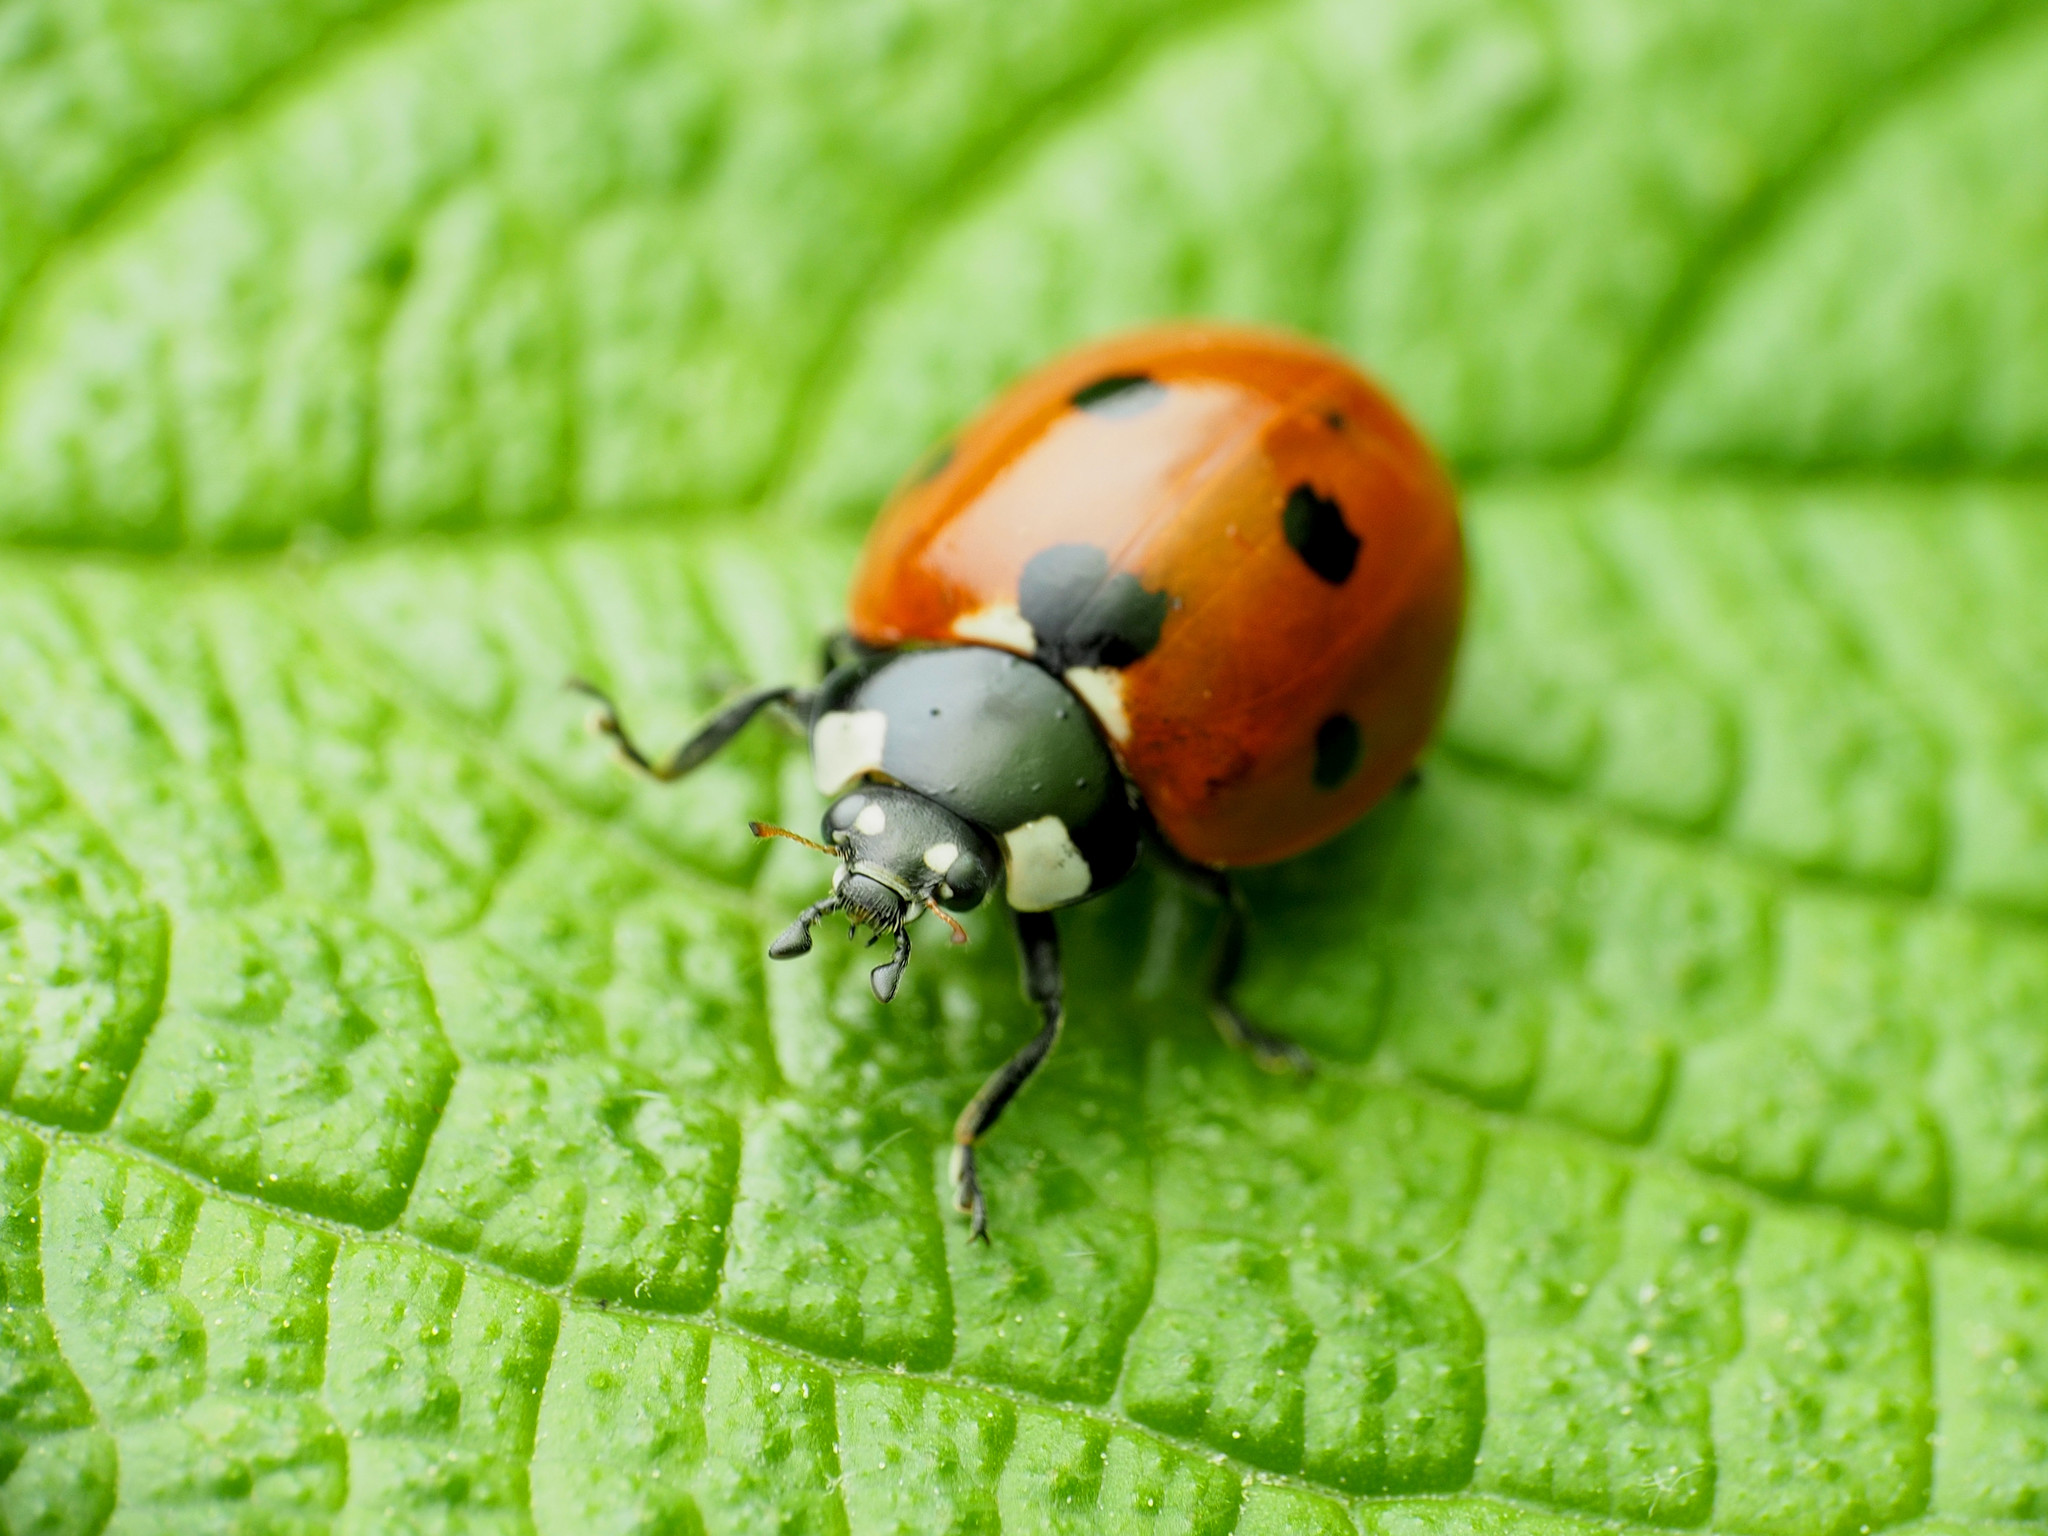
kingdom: Animalia
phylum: Arthropoda
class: Insecta
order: Coleoptera
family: Coccinellidae
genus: Coccinella
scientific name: Coccinella septempunctata
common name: Sevenspotted lady beetle
